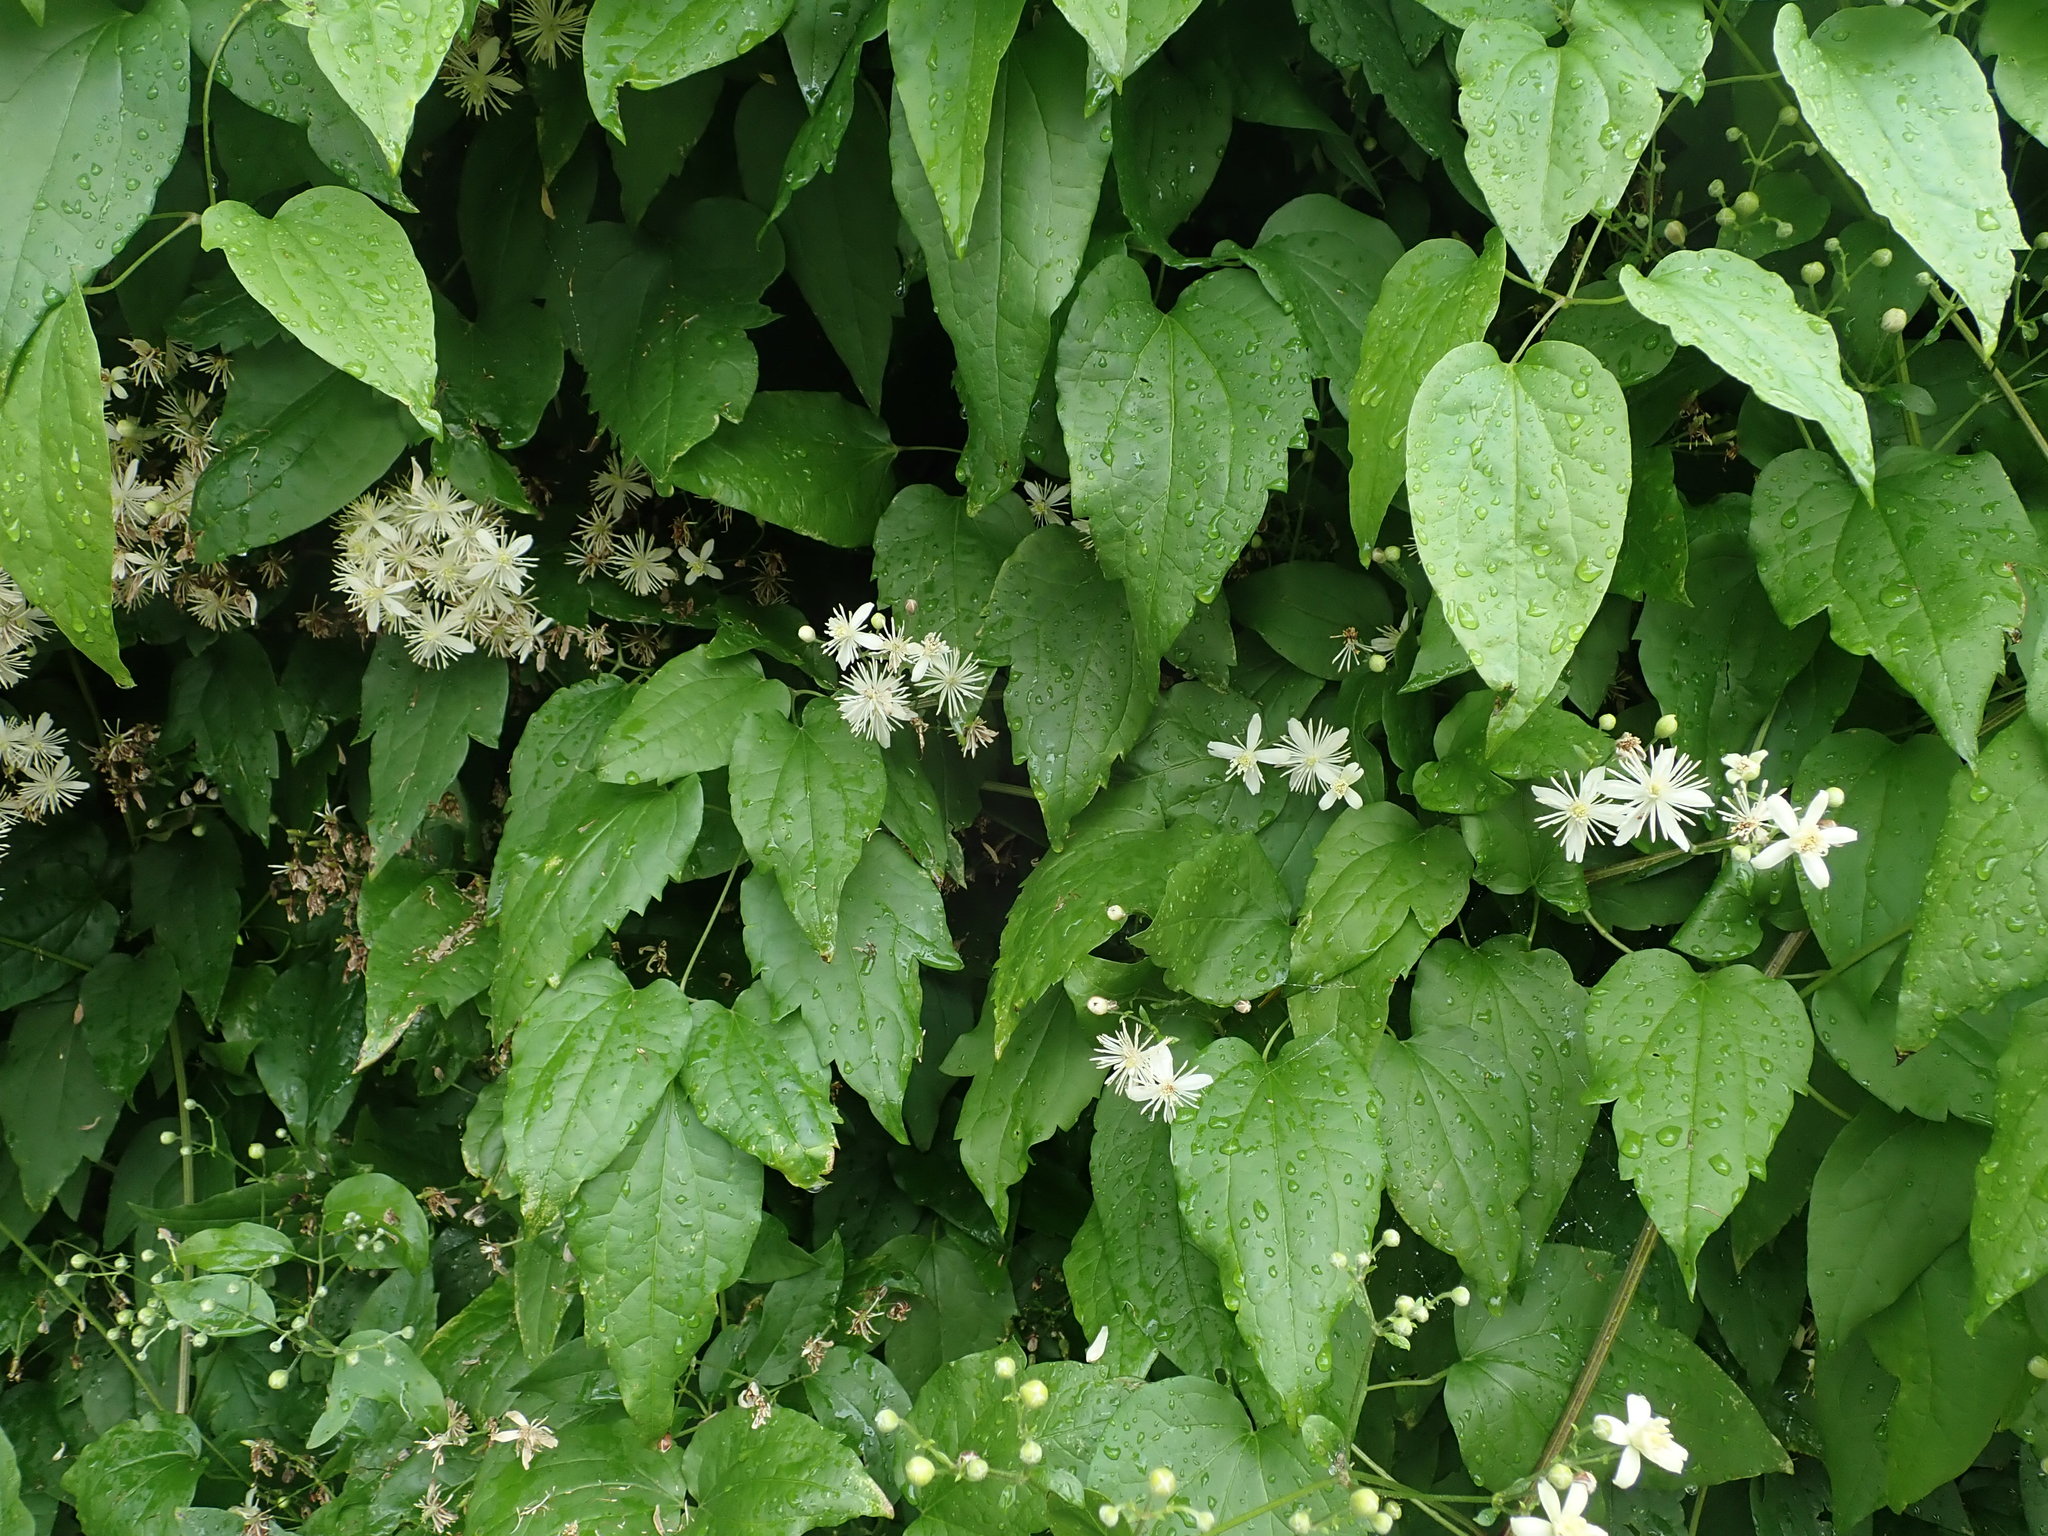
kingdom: Plantae
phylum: Tracheophyta
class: Magnoliopsida
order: Ranunculales
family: Ranunculaceae
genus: Clematis
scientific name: Clematis vitalba
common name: Evergreen clematis
